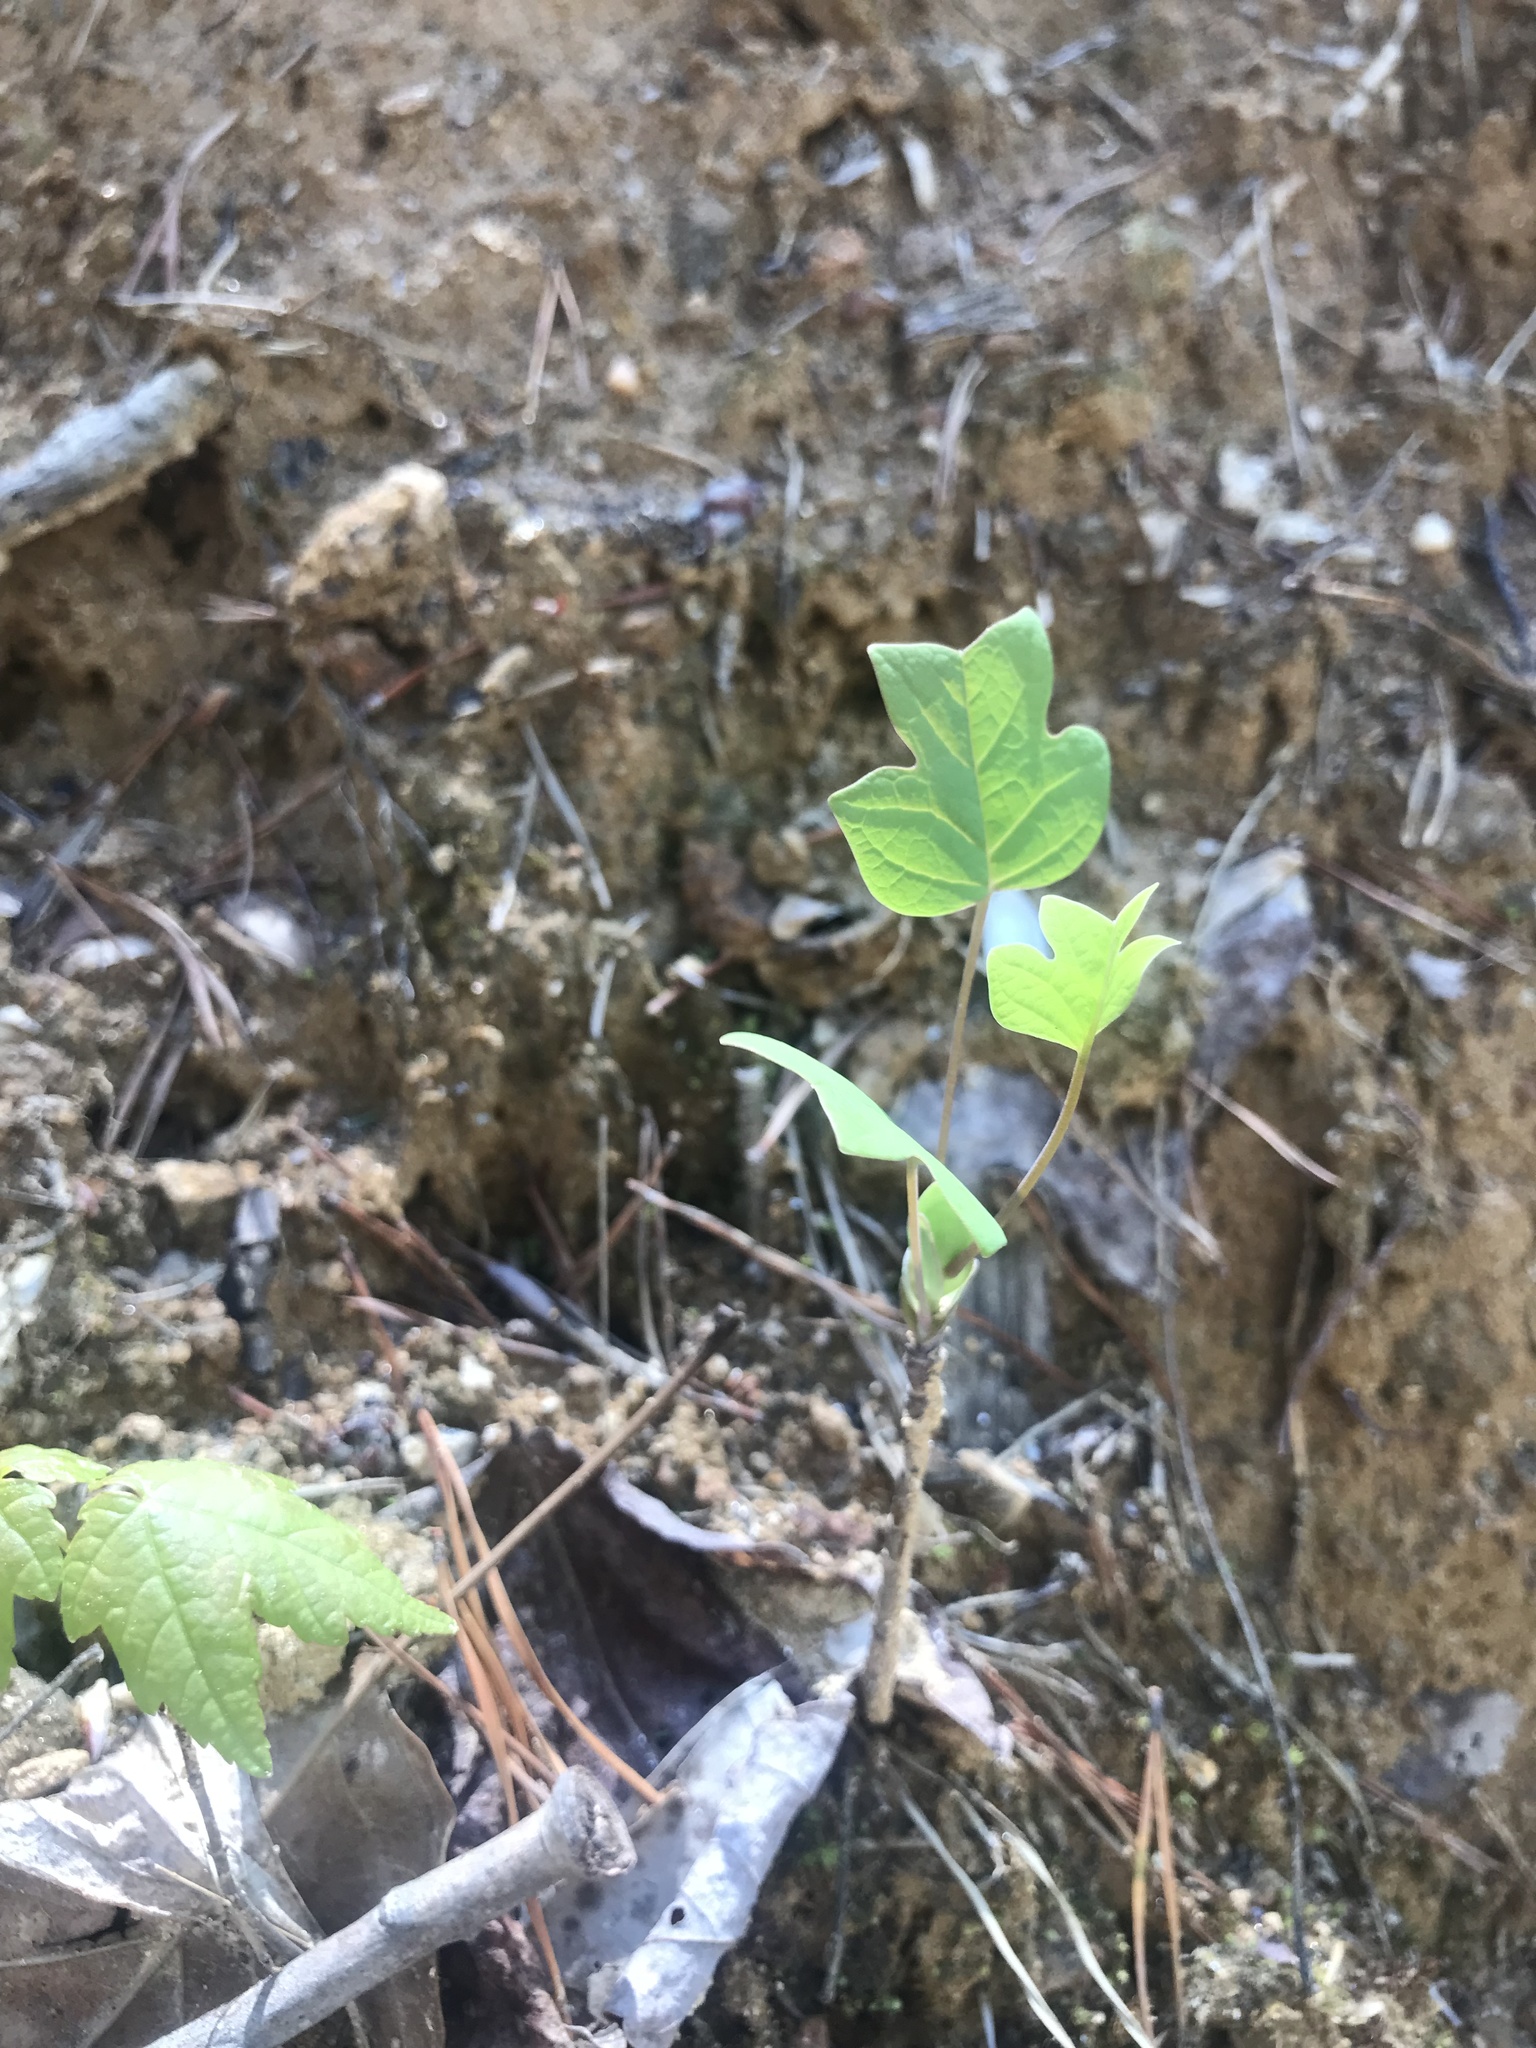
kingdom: Plantae
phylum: Tracheophyta
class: Magnoliopsida
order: Magnoliales
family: Magnoliaceae
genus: Liriodendron
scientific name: Liriodendron tulipifera
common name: Tulip tree
